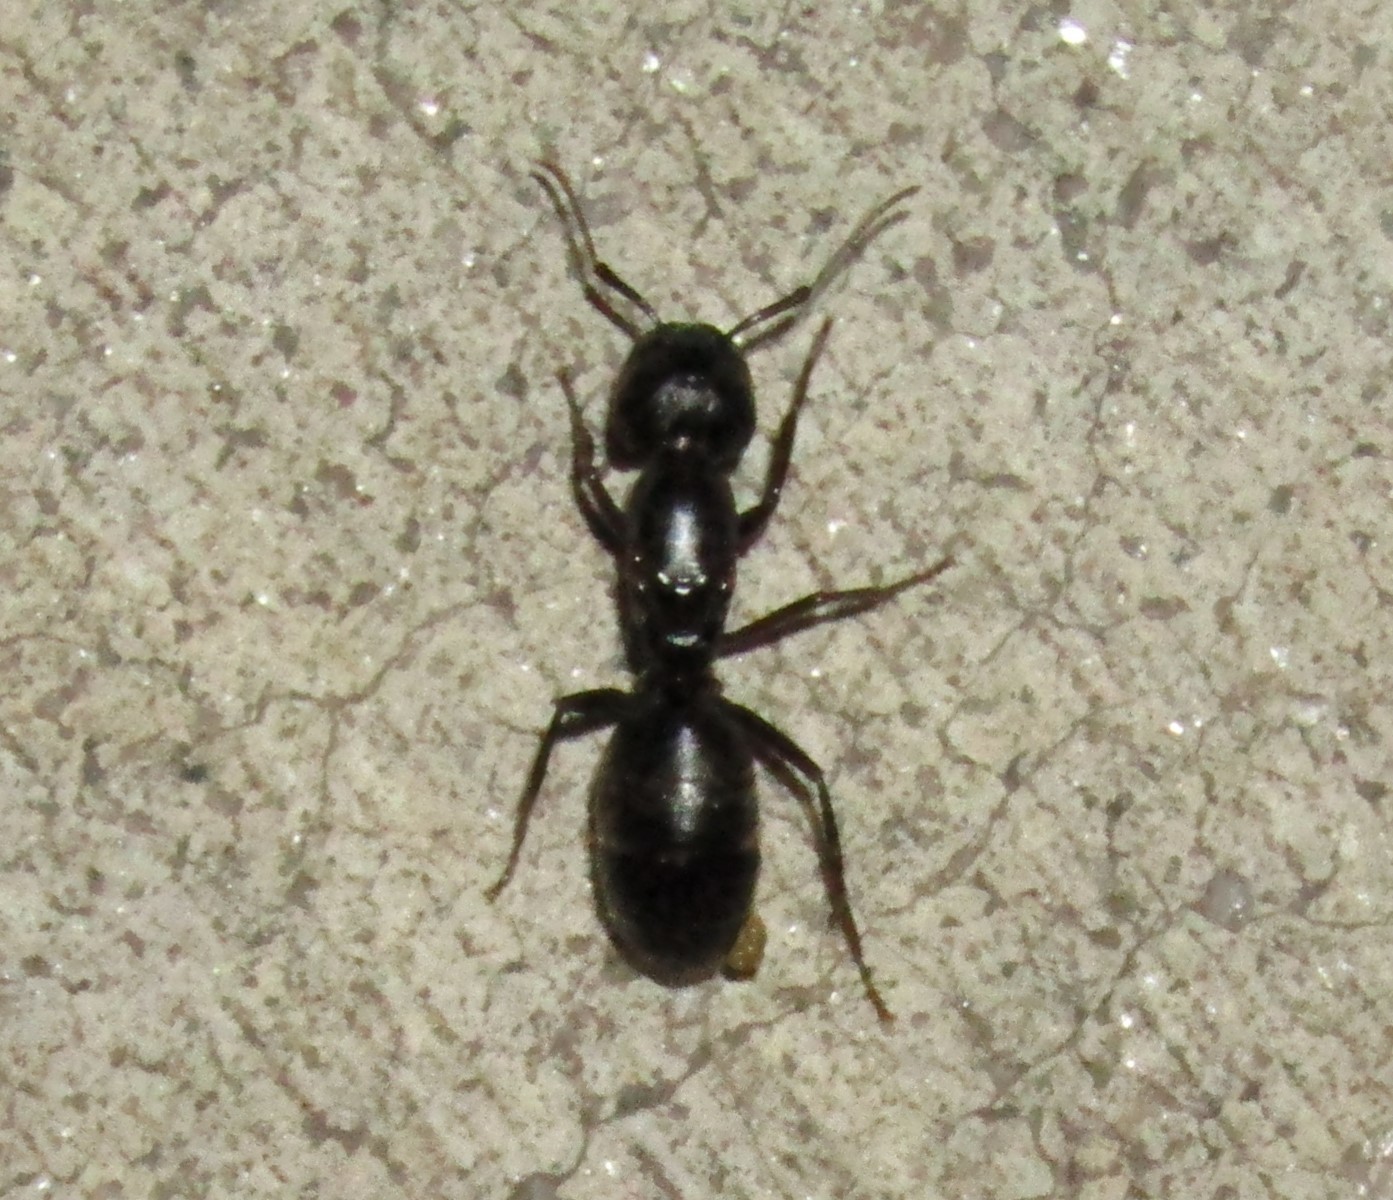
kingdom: Animalia
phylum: Arthropoda
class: Insecta
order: Hymenoptera
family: Formicidae
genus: Camponotus
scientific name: Camponotus pennsylvanicus
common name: Black carpenter ant
